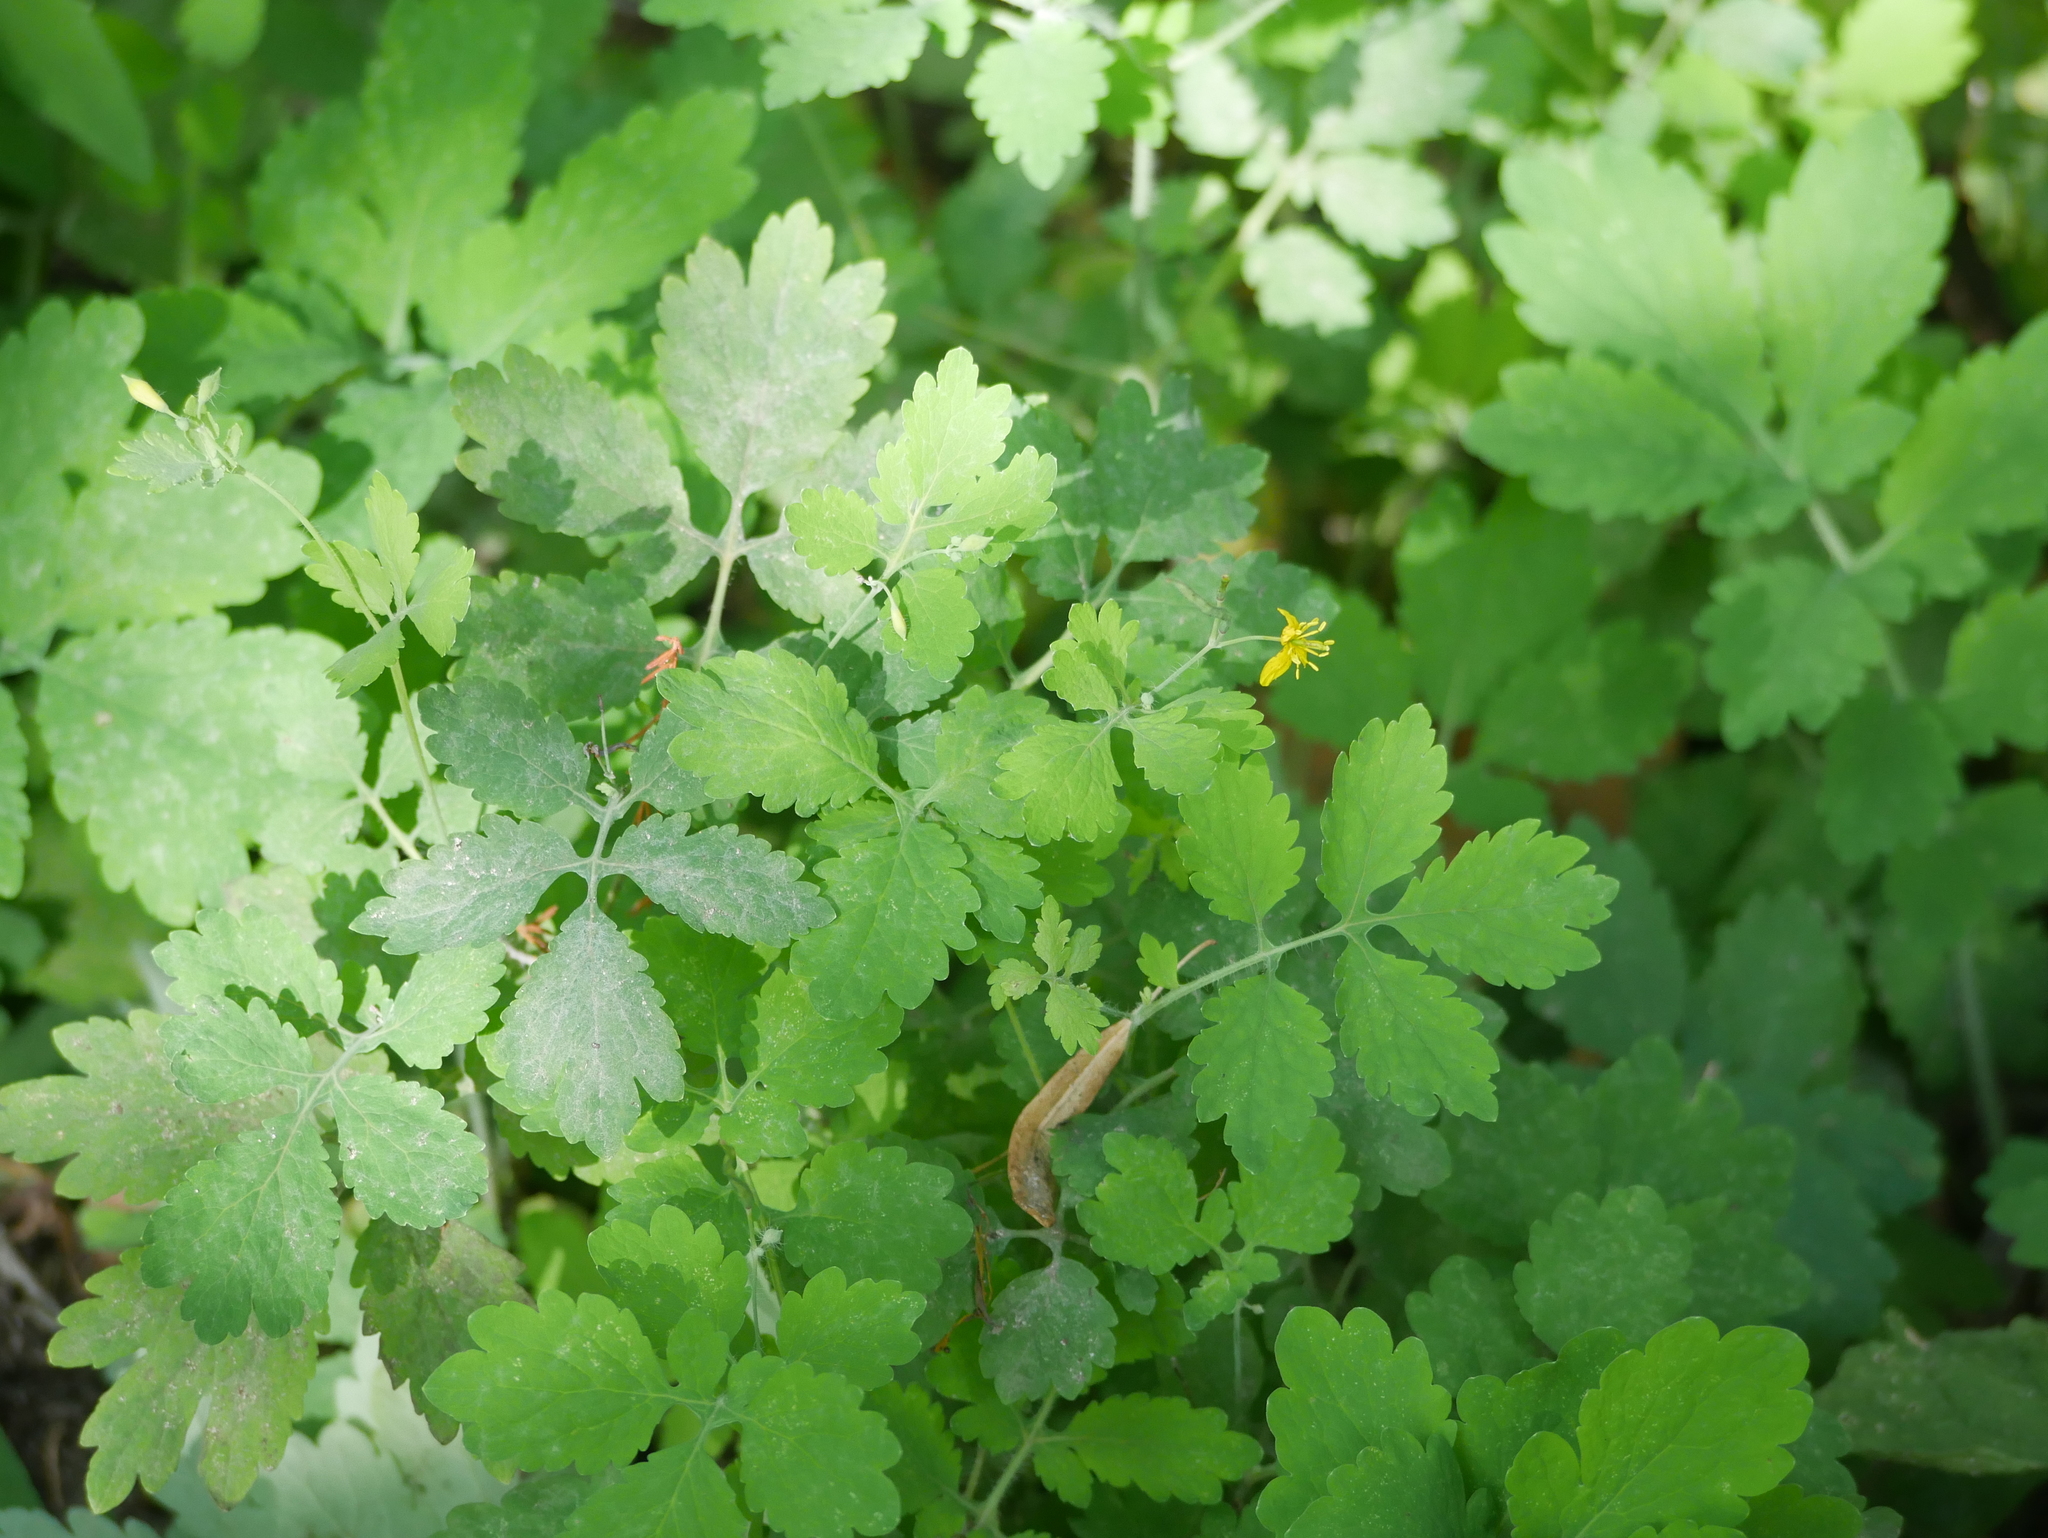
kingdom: Plantae
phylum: Tracheophyta
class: Magnoliopsida
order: Ranunculales
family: Papaveraceae
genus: Chelidonium
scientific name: Chelidonium majus
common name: Greater celandine
